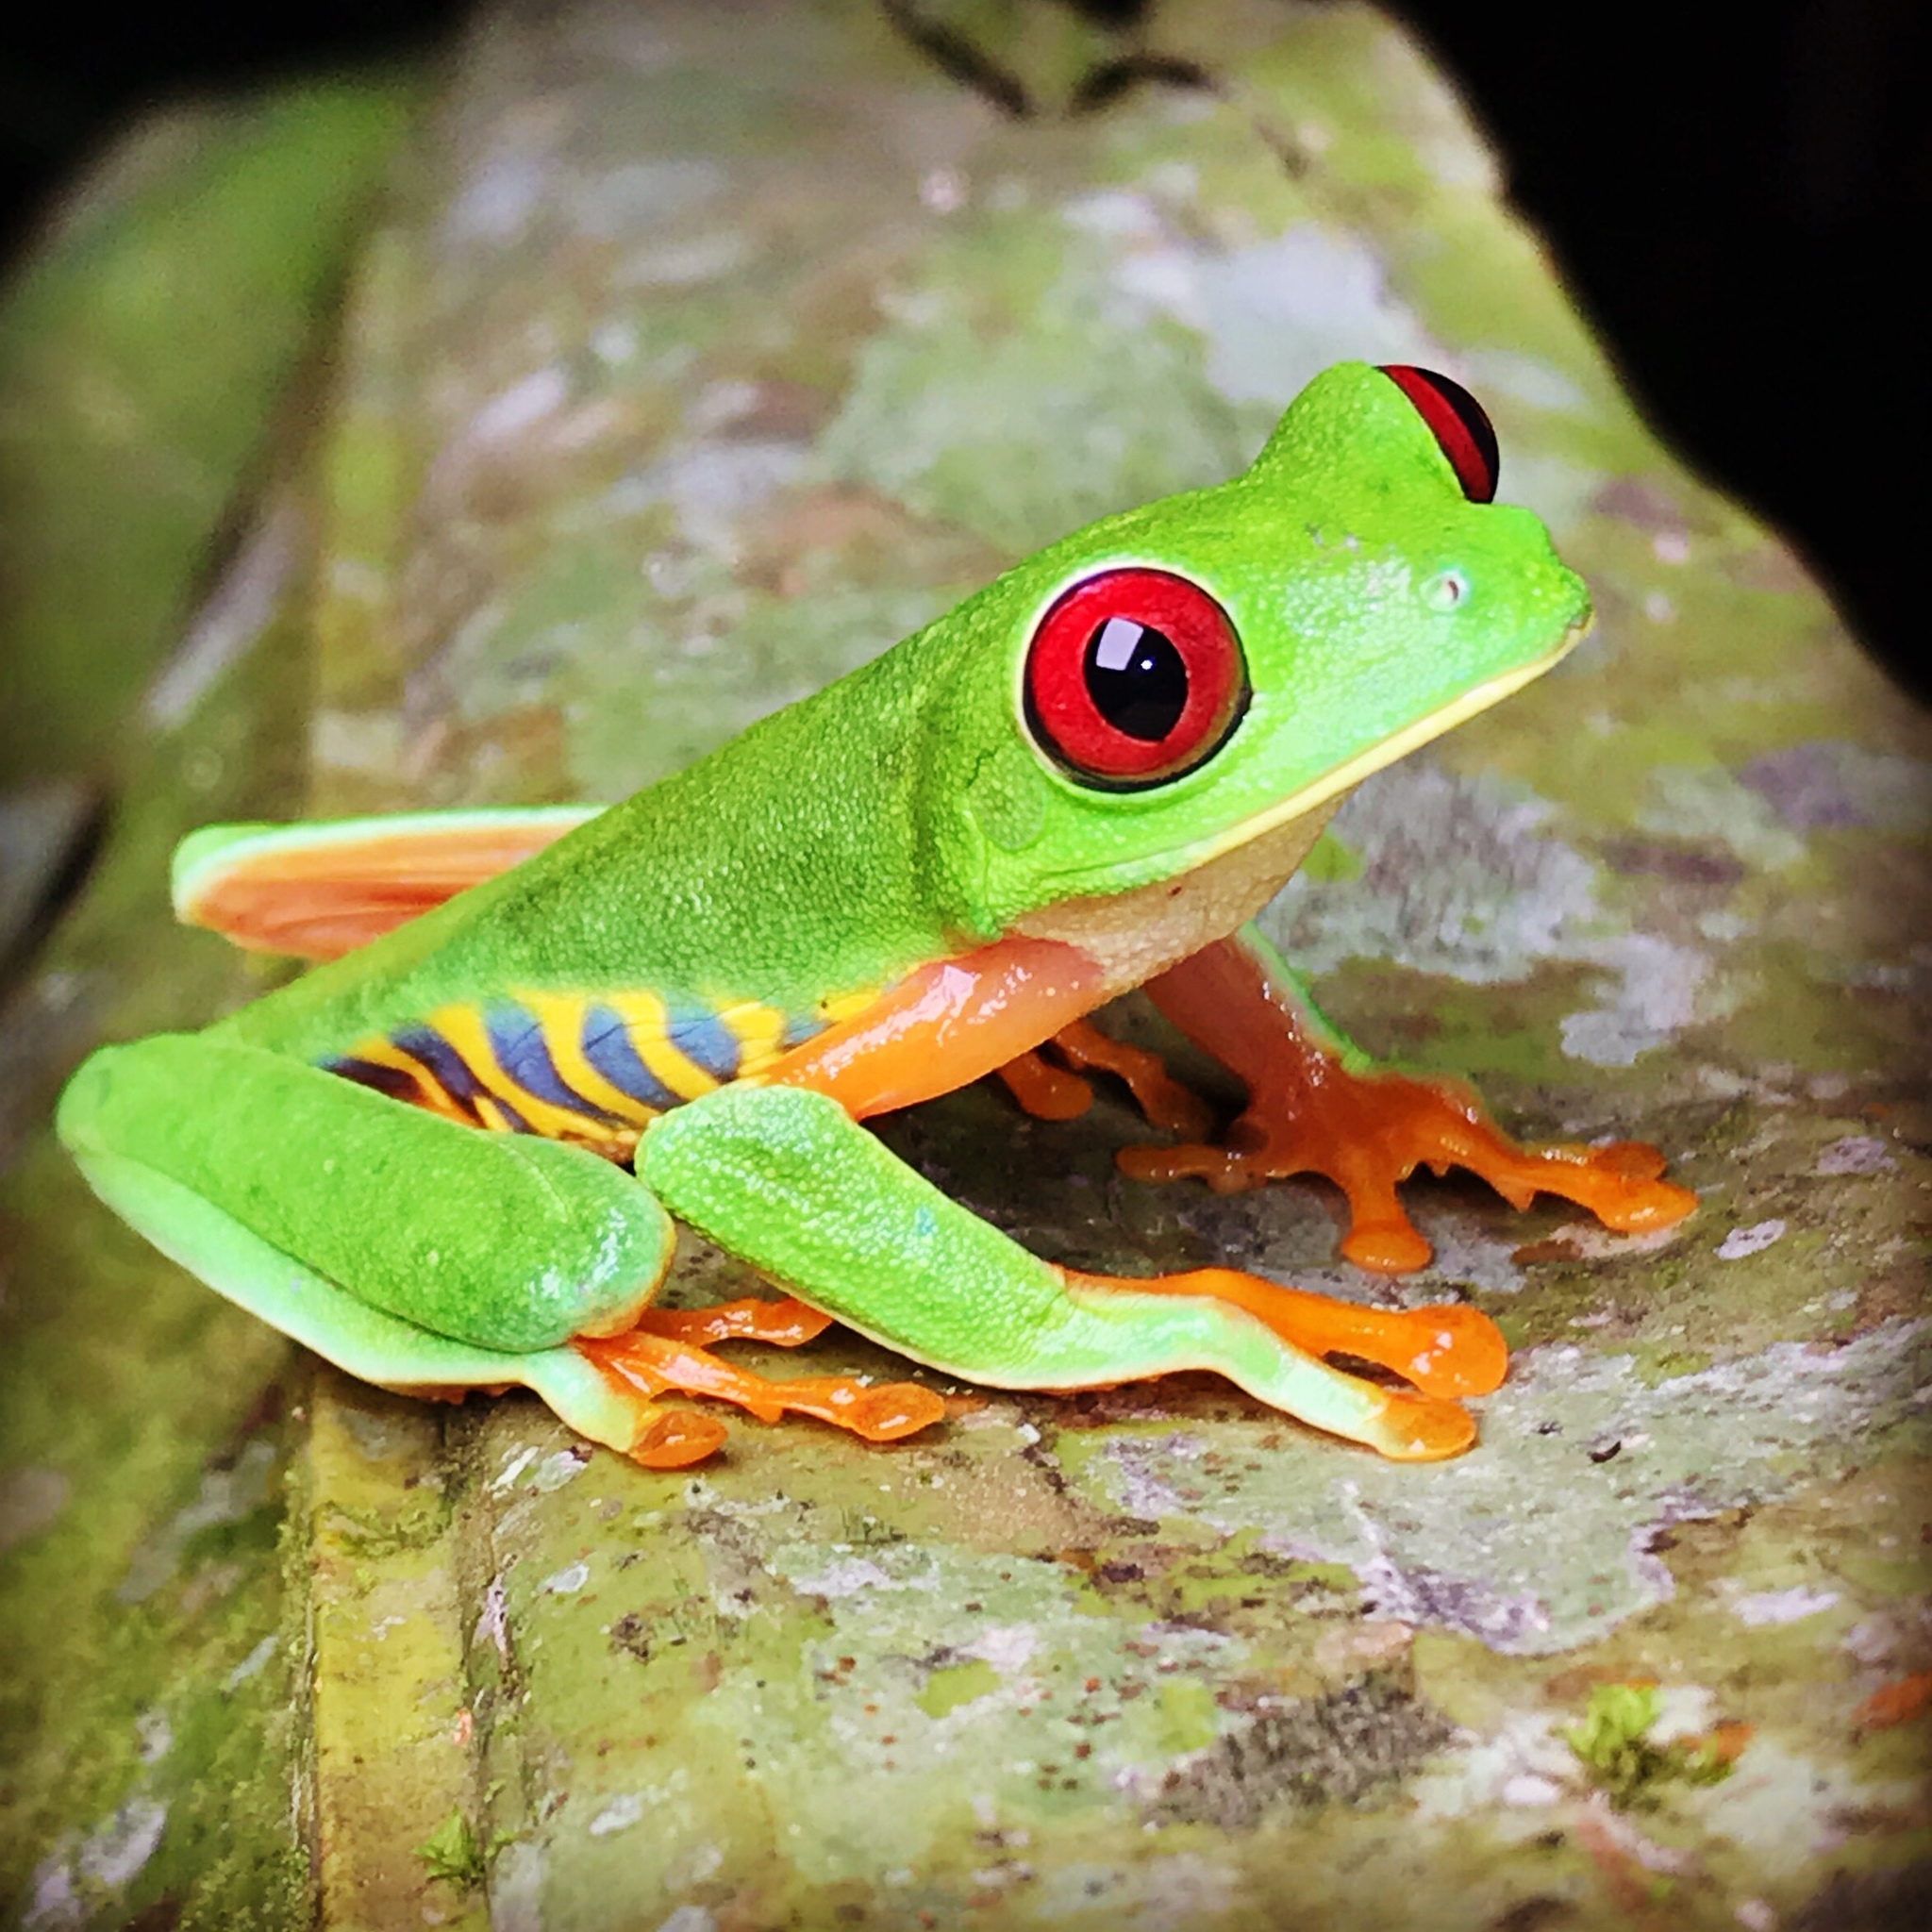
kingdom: Animalia
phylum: Chordata
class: Amphibia
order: Anura
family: Phyllomedusidae
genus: Agalychnis
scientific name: Agalychnis callidryas
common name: Red-eyed treefrog
